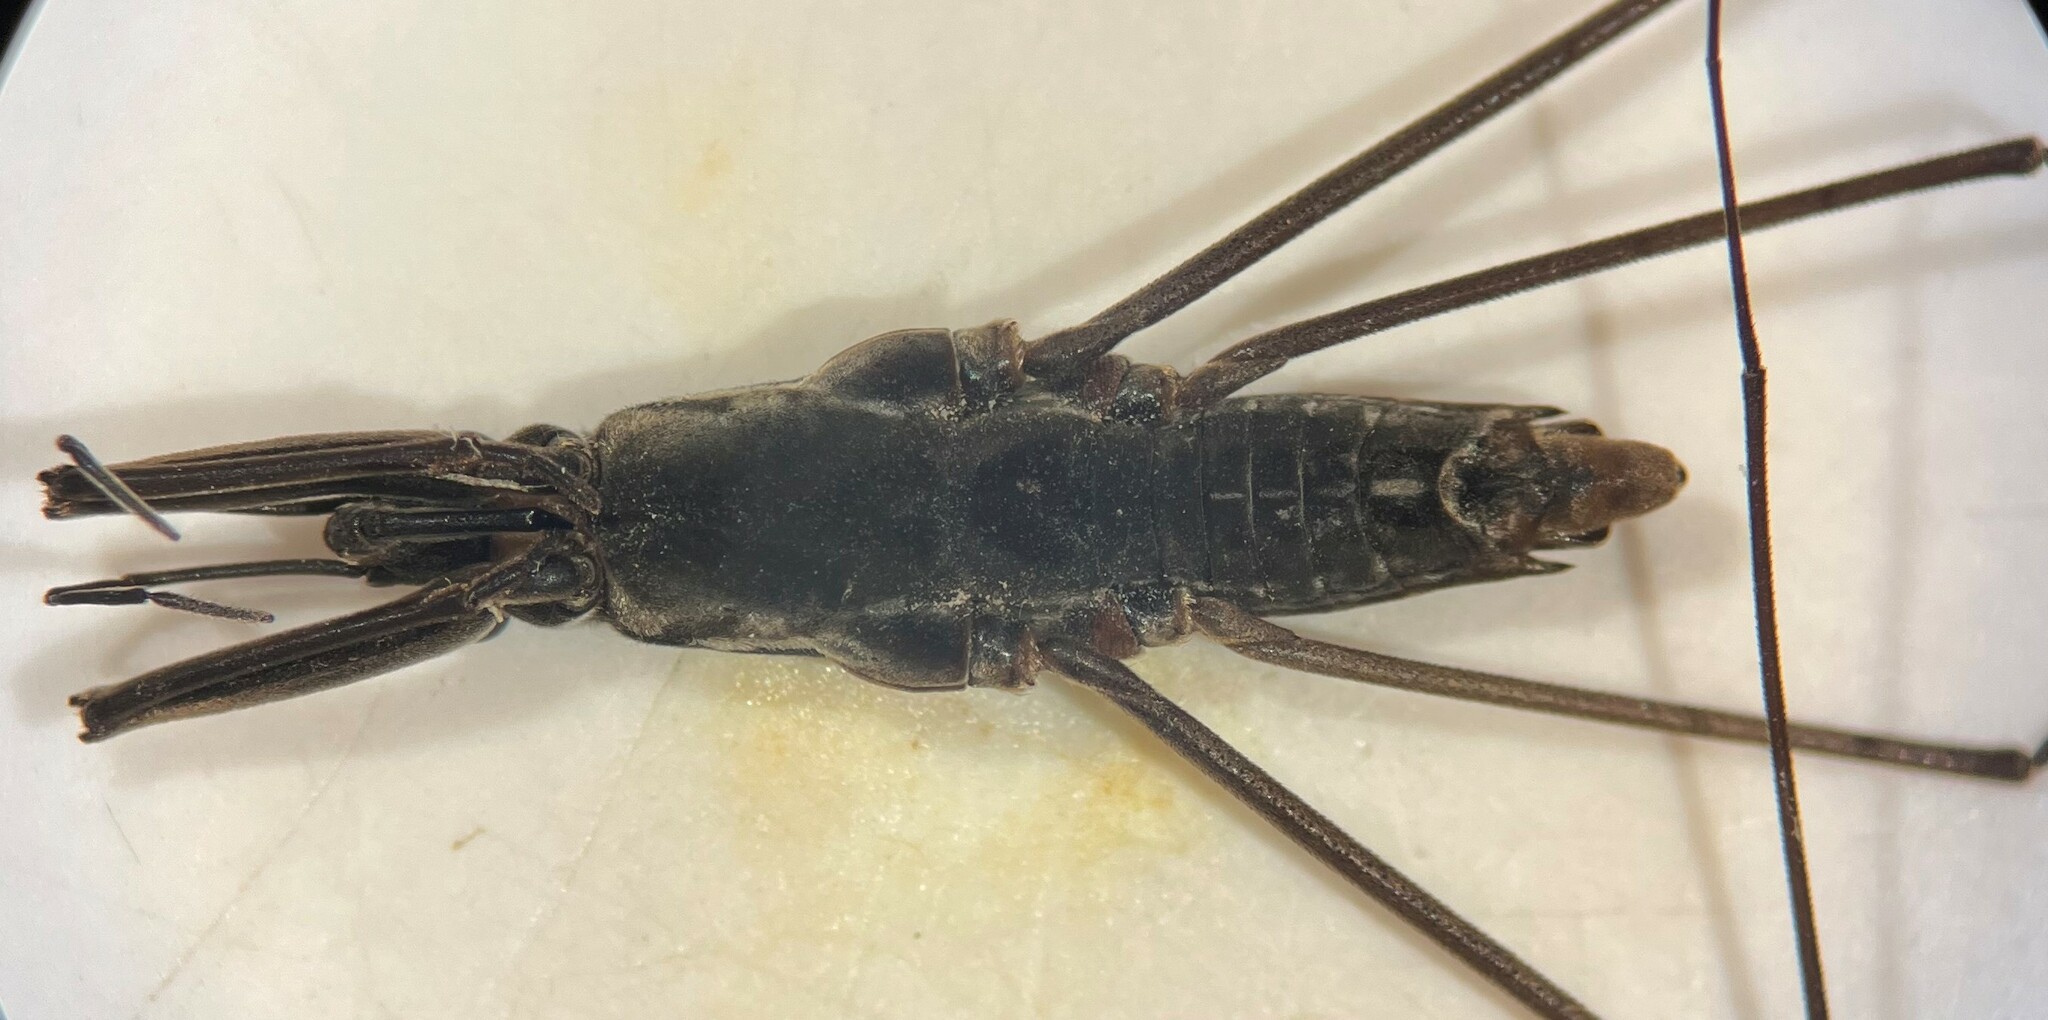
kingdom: Animalia
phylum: Arthropoda
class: Insecta
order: Hemiptera
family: Gerridae
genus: Aquarius
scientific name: Aquarius remigis
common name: Common water strider
